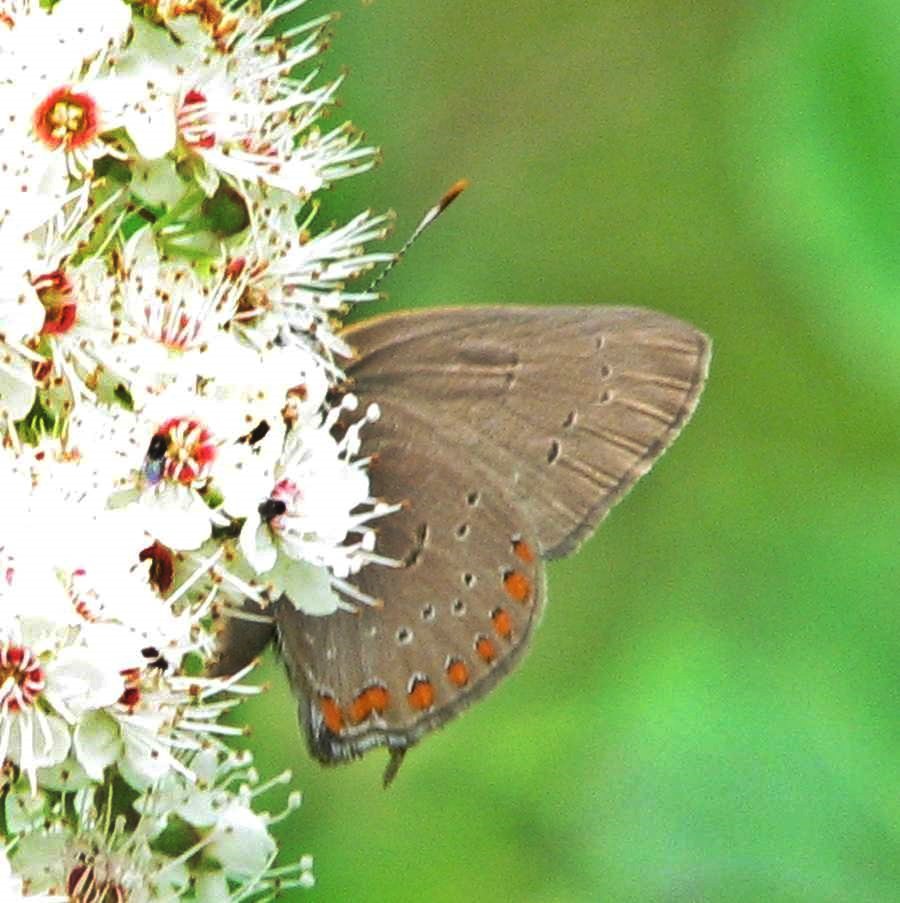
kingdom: Animalia
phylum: Arthropoda
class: Insecta
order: Lepidoptera
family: Lycaenidae
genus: Harkenclenus
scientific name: Harkenclenus titus
